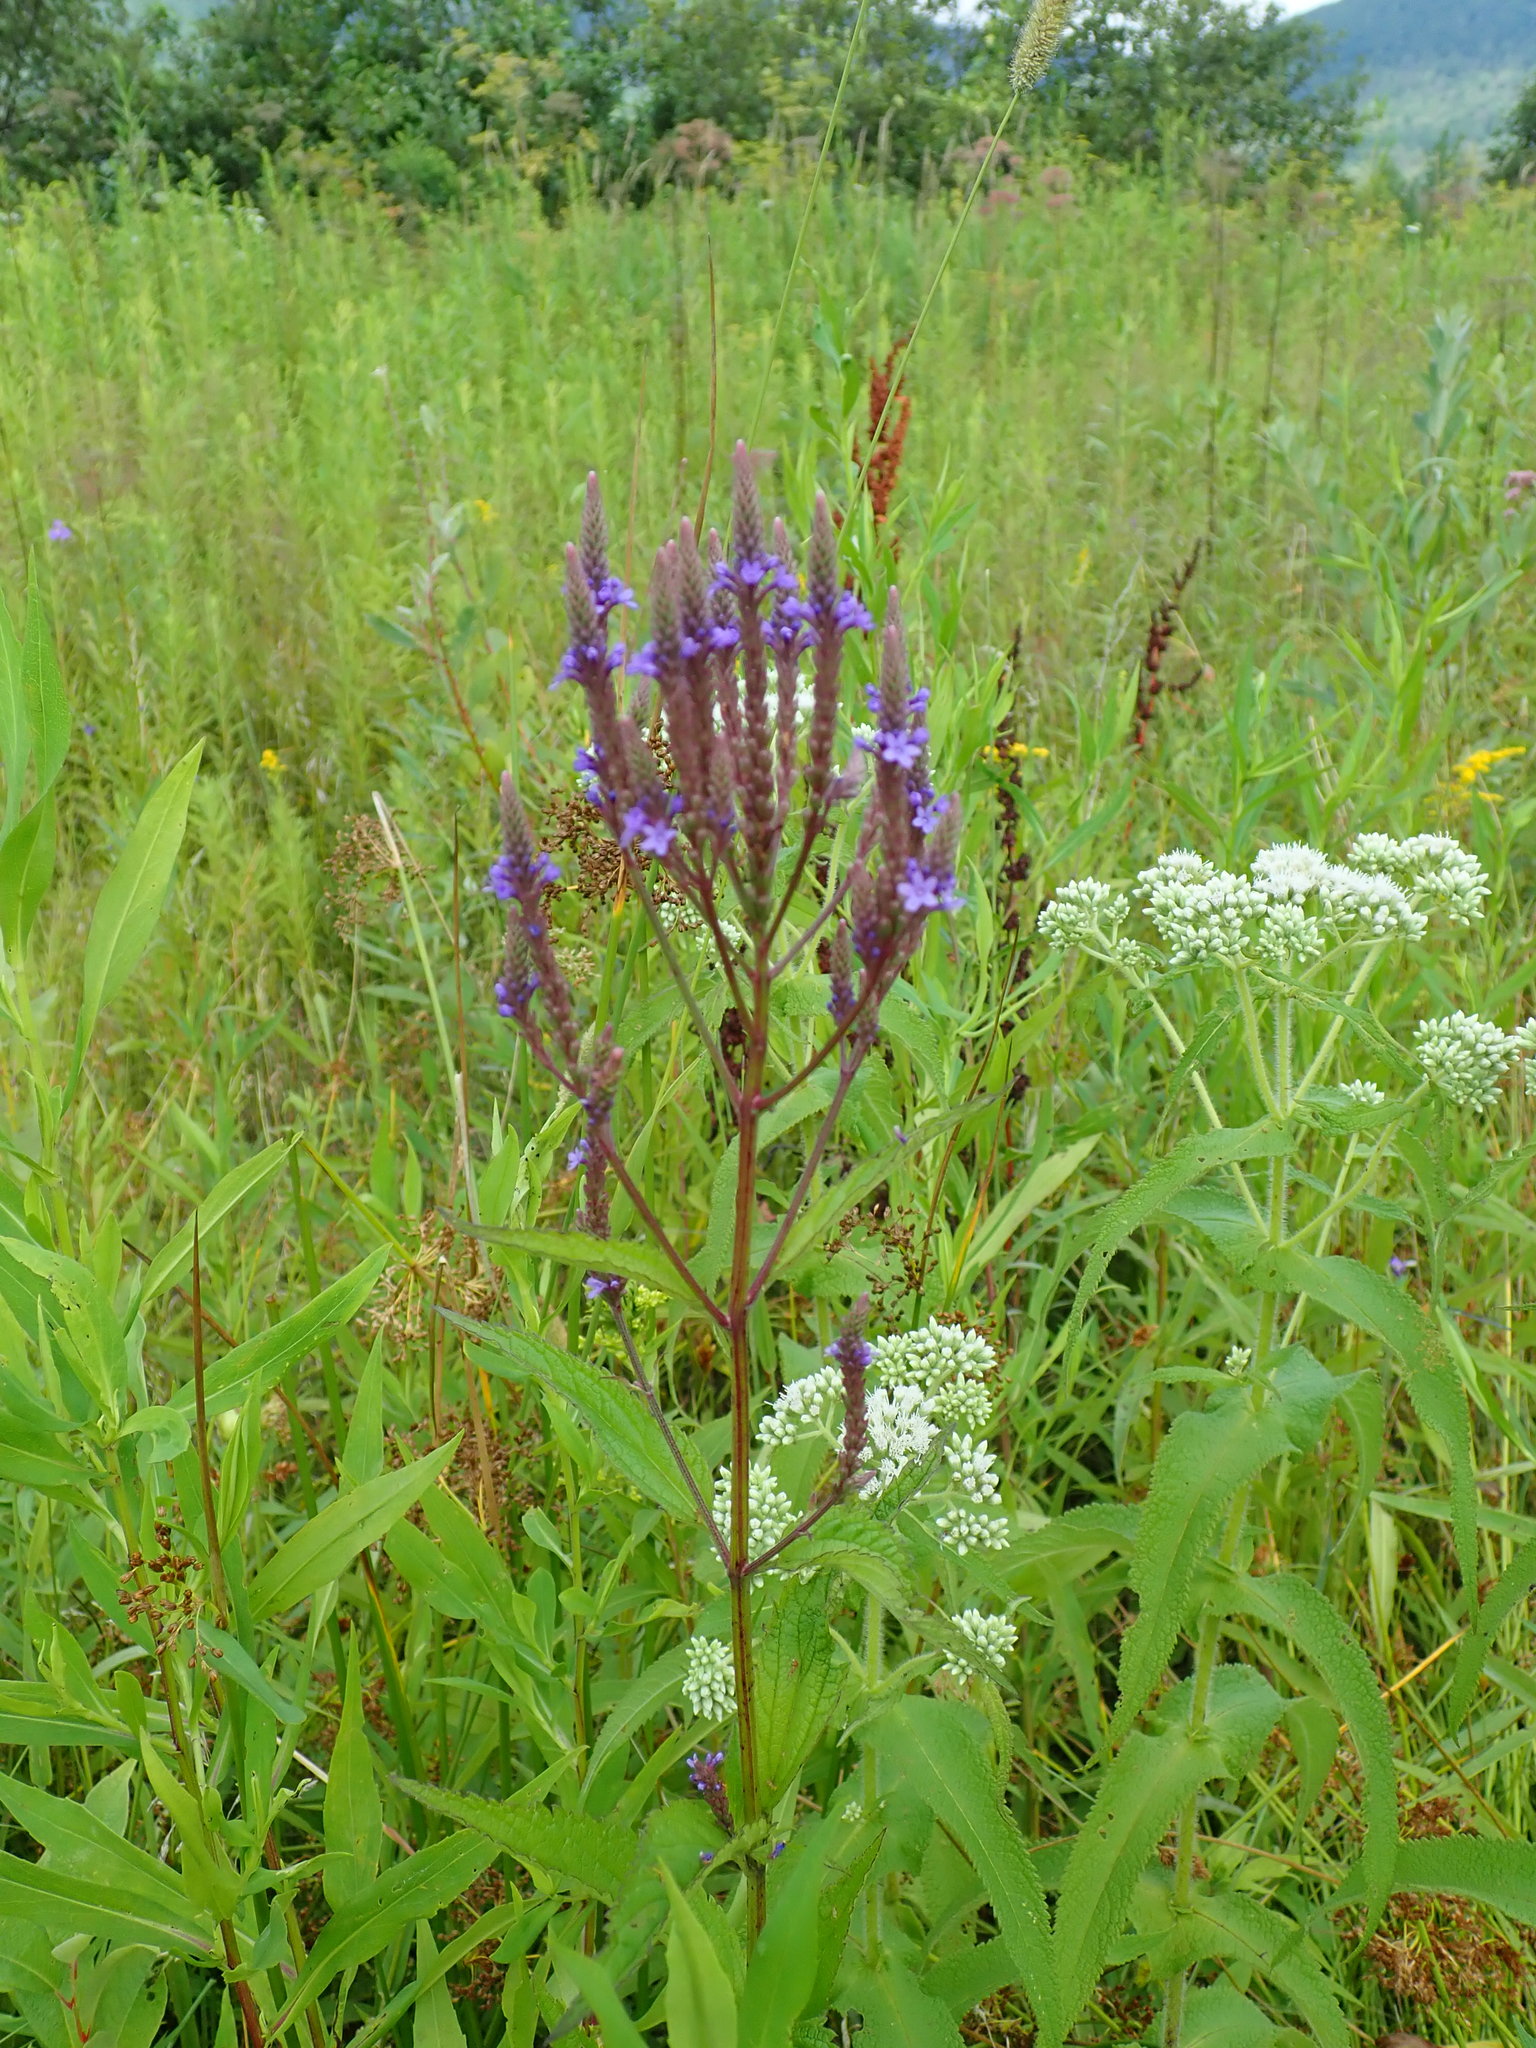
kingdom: Plantae
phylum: Tracheophyta
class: Magnoliopsida
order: Lamiales
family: Verbenaceae
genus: Verbena
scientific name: Verbena hastata
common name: American blue vervain
